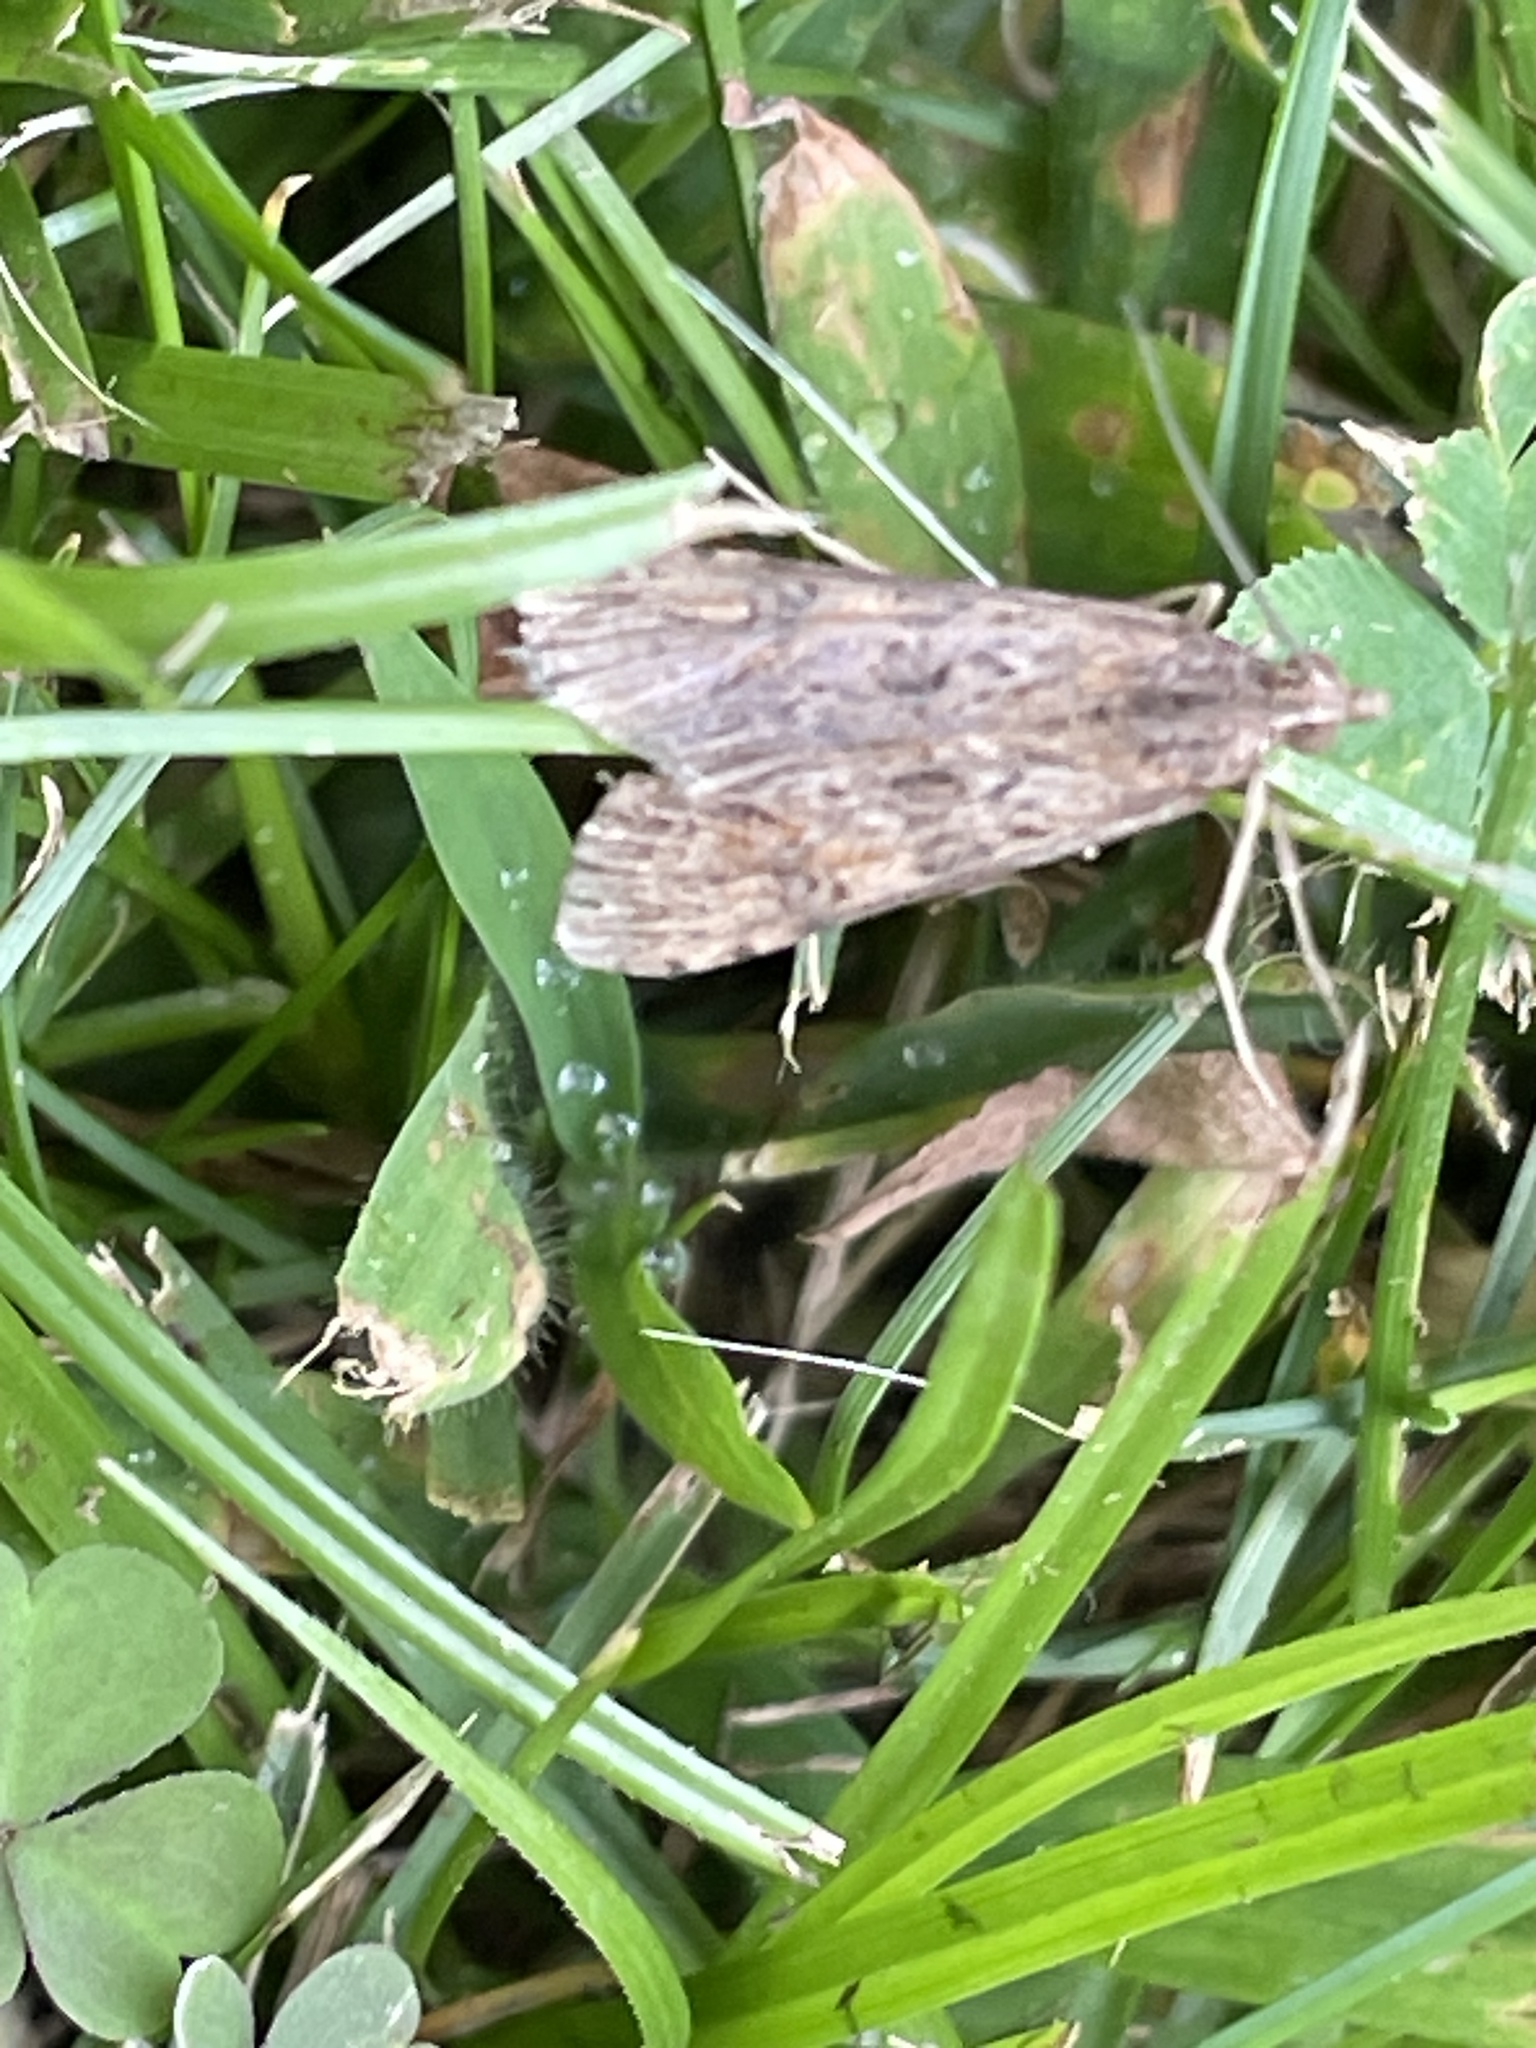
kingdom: Animalia
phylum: Arthropoda
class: Insecta
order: Lepidoptera
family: Crambidae
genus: Nomophila
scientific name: Nomophila nearctica
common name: American rush veneer
